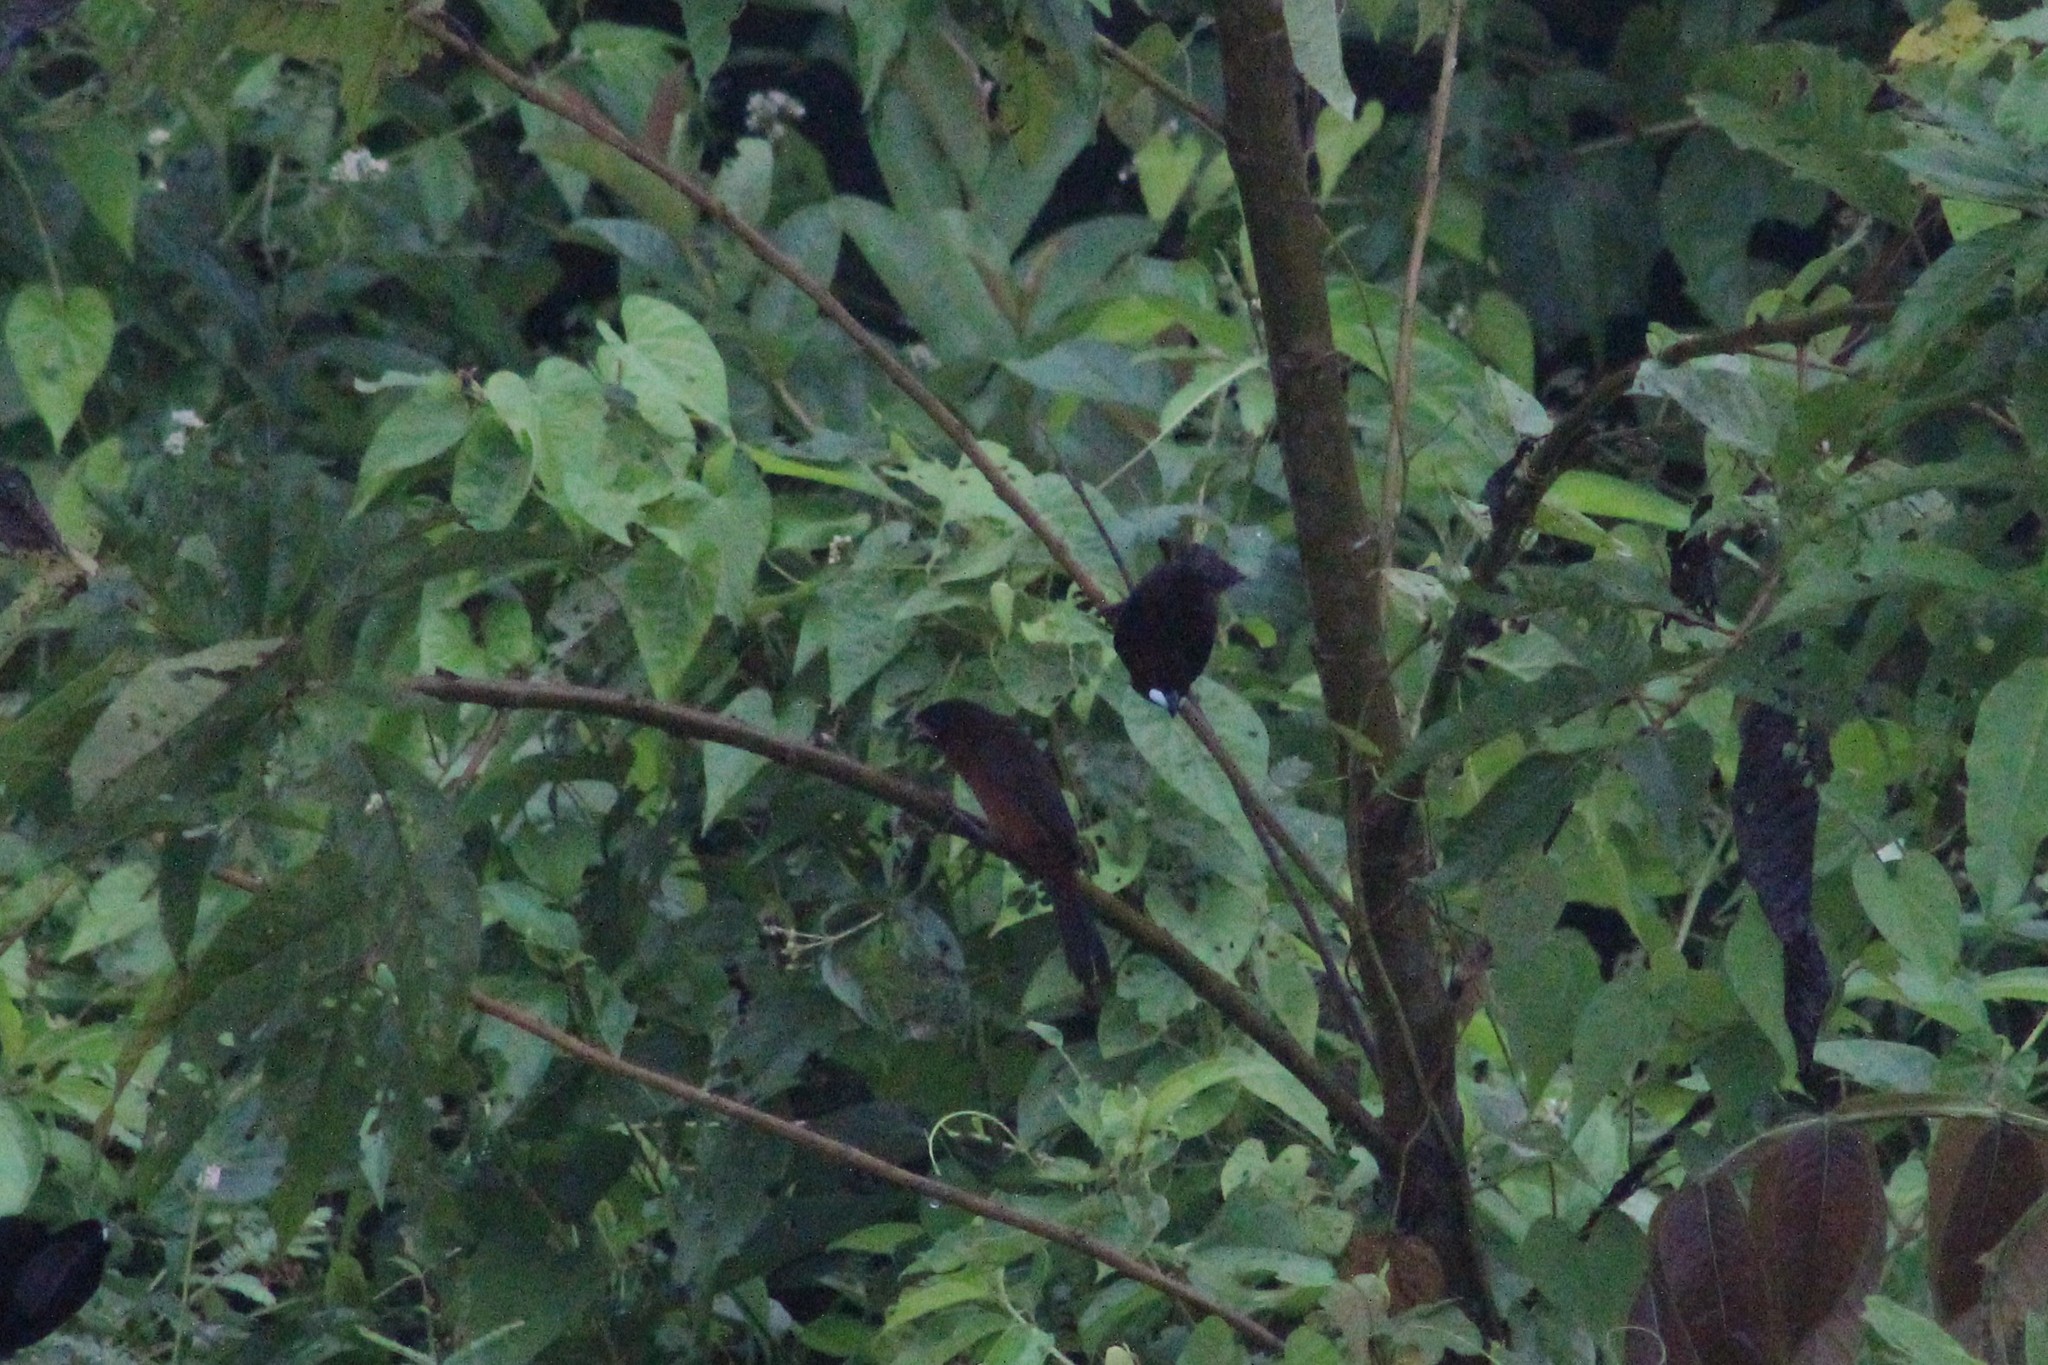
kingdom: Animalia
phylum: Chordata
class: Aves
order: Passeriformes
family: Thraupidae
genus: Ramphocelus
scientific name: Ramphocelus carbo
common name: Silver-beaked tanager
